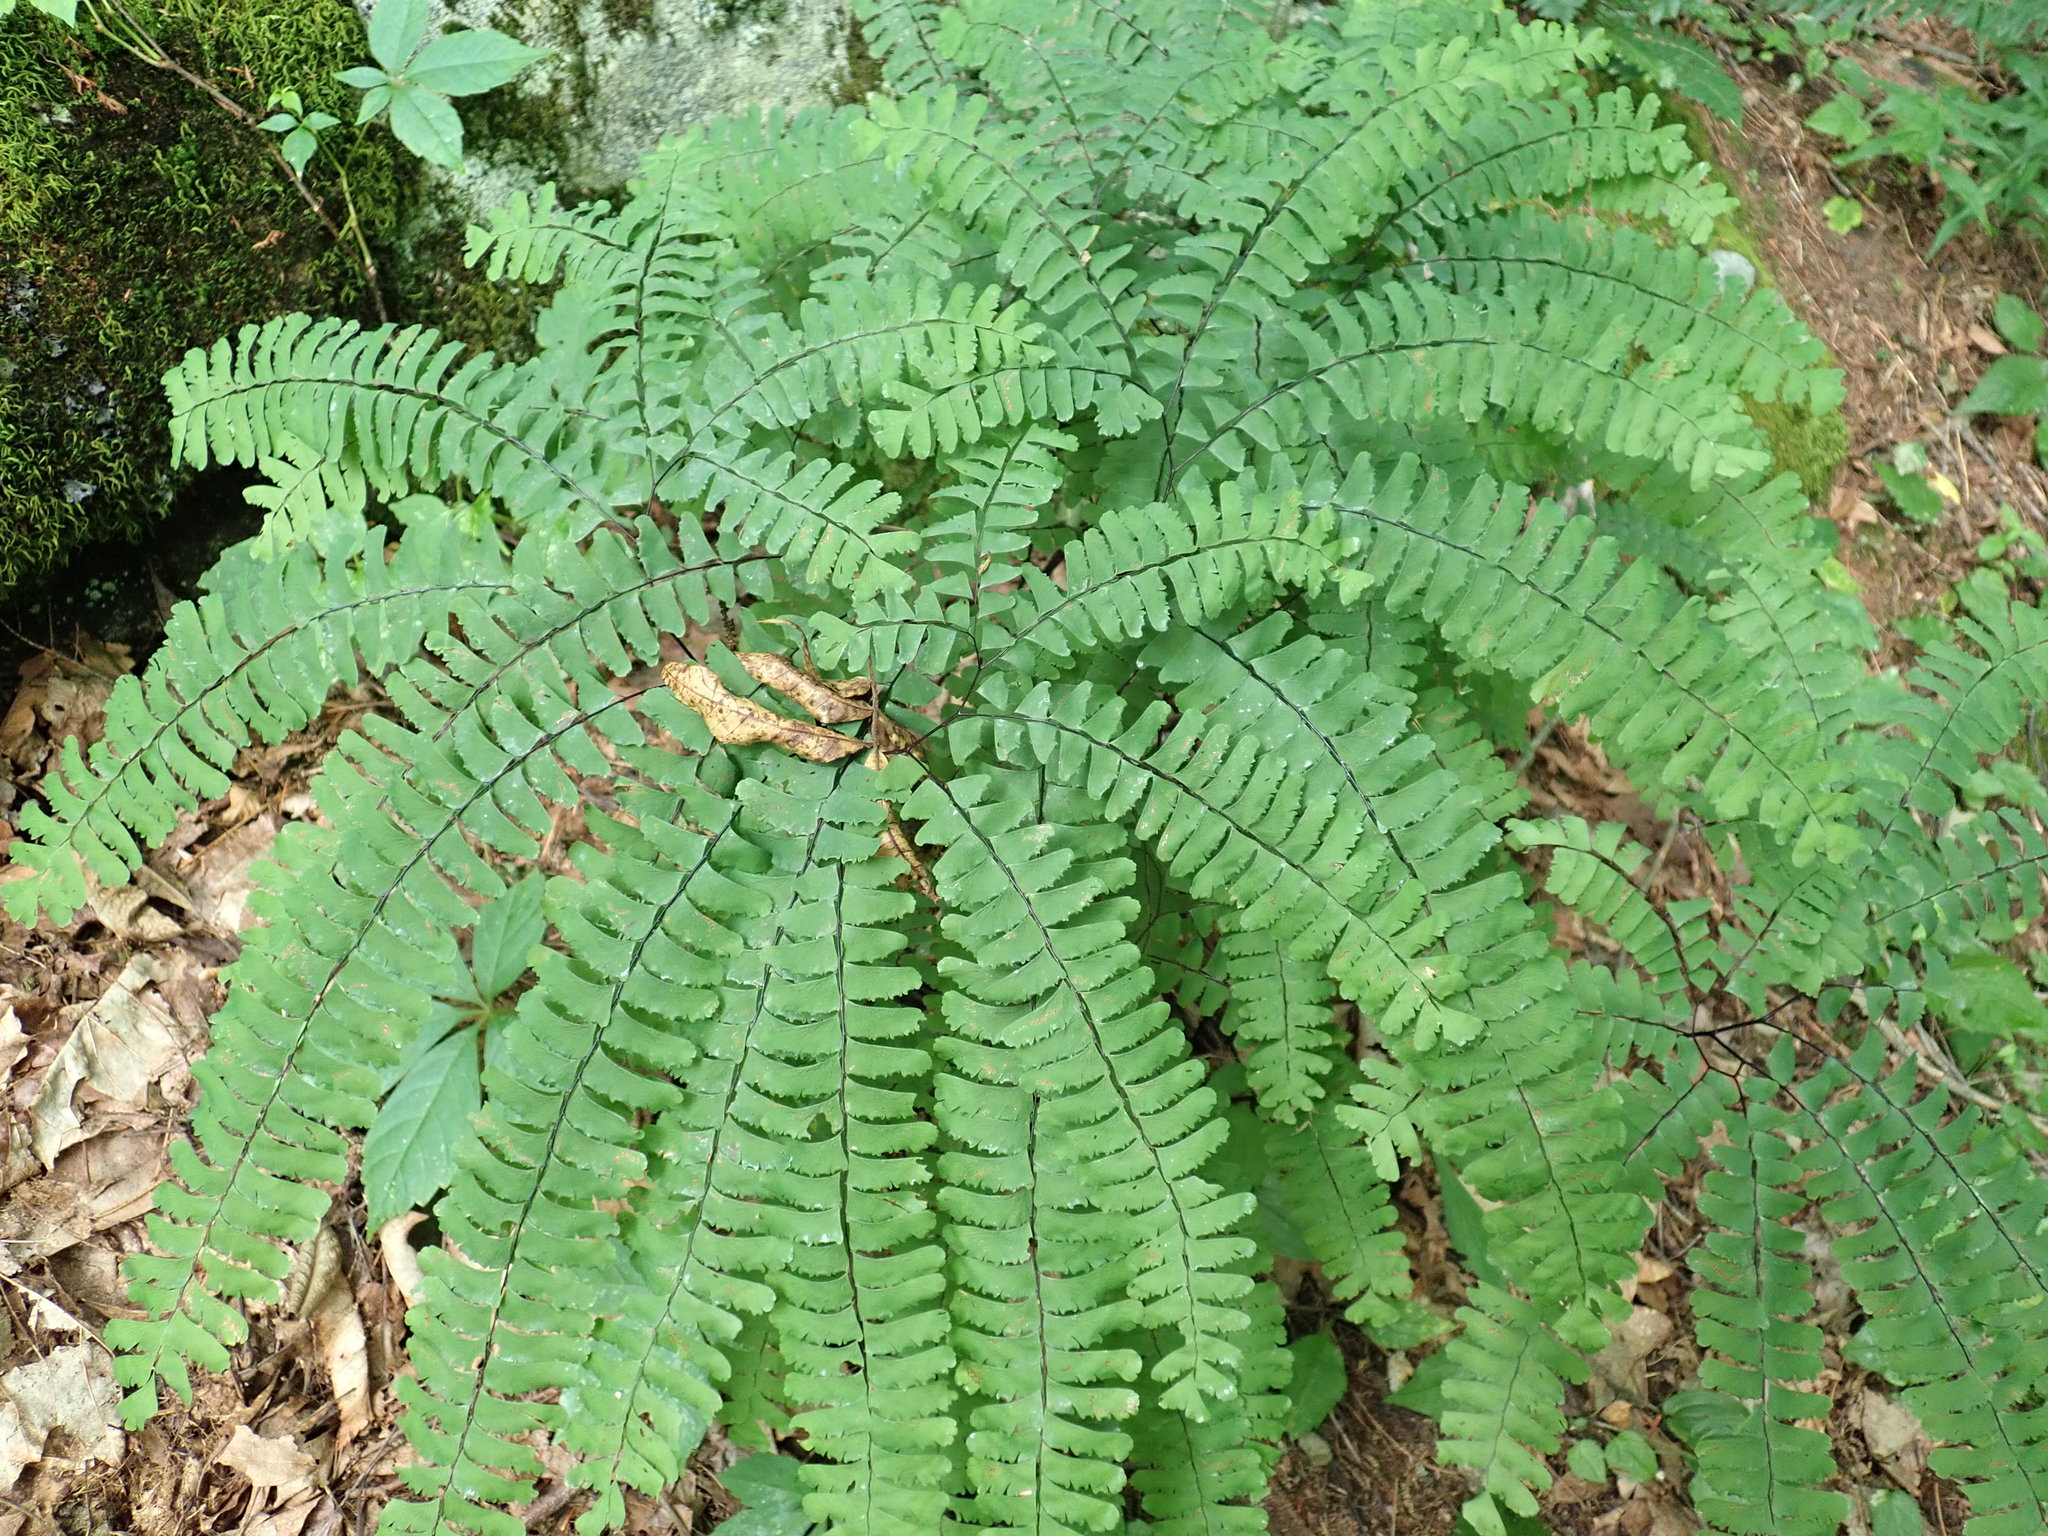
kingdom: Plantae
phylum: Tracheophyta
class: Polypodiopsida
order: Polypodiales
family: Pteridaceae
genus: Adiantum
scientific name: Adiantum pedatum
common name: Five-finger fern
